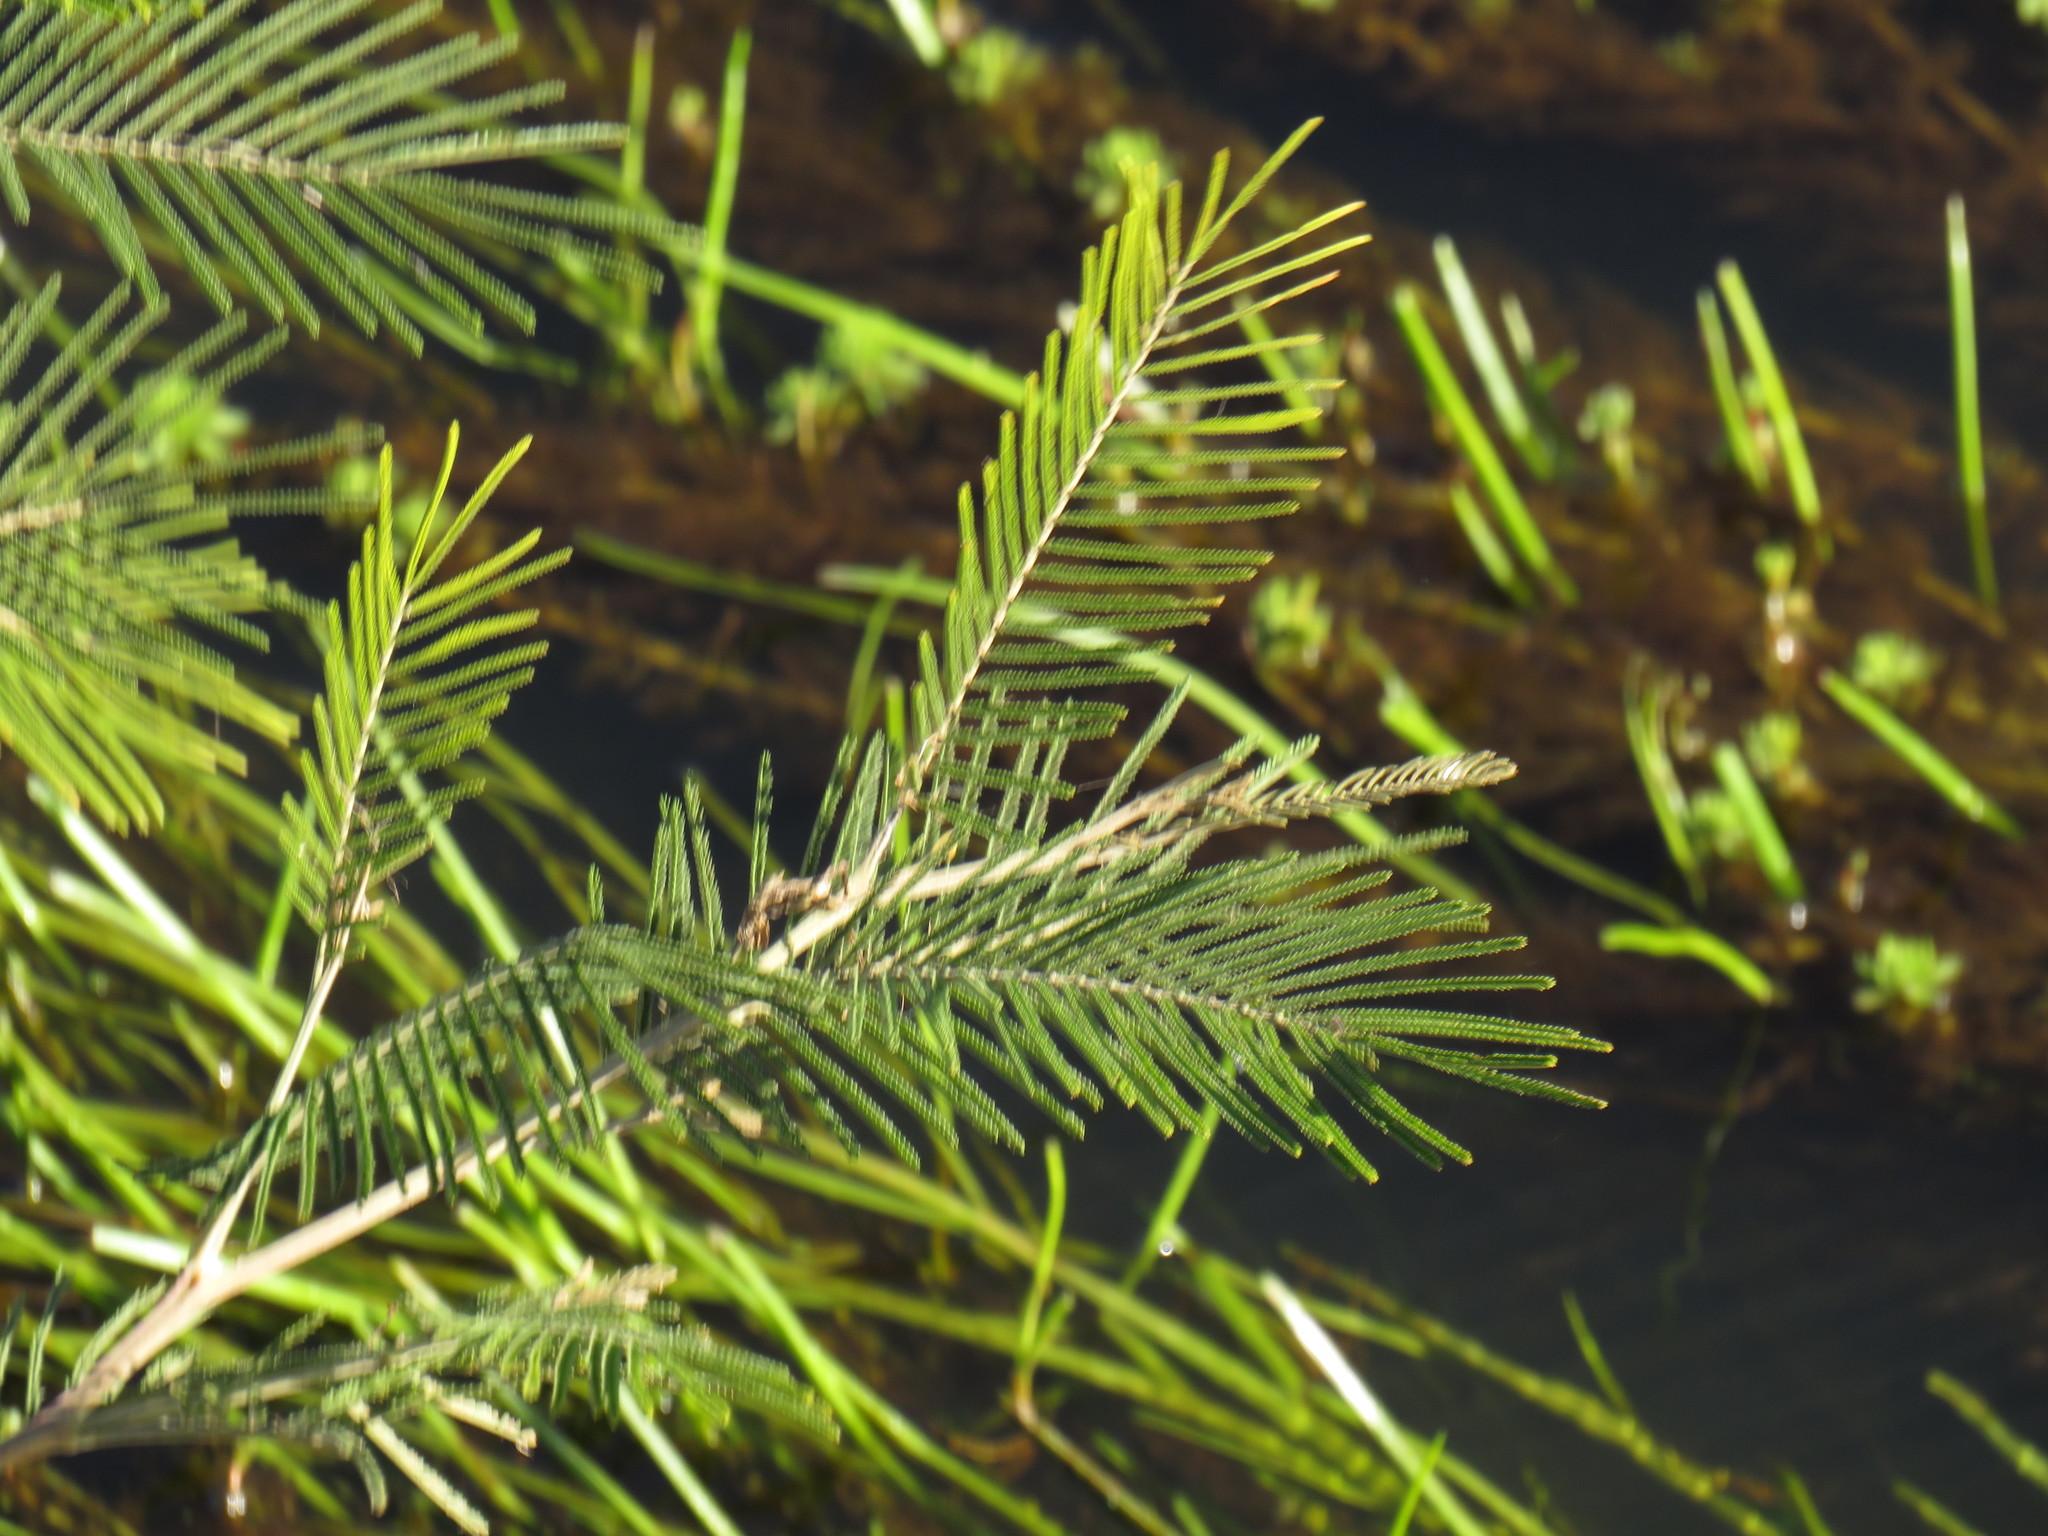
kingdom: Plantae
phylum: Tracheophyta
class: Magnoliopsida
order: Fabales
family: Fabaceae
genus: Acacia
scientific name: Acacia mearnsii
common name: Black wattle
